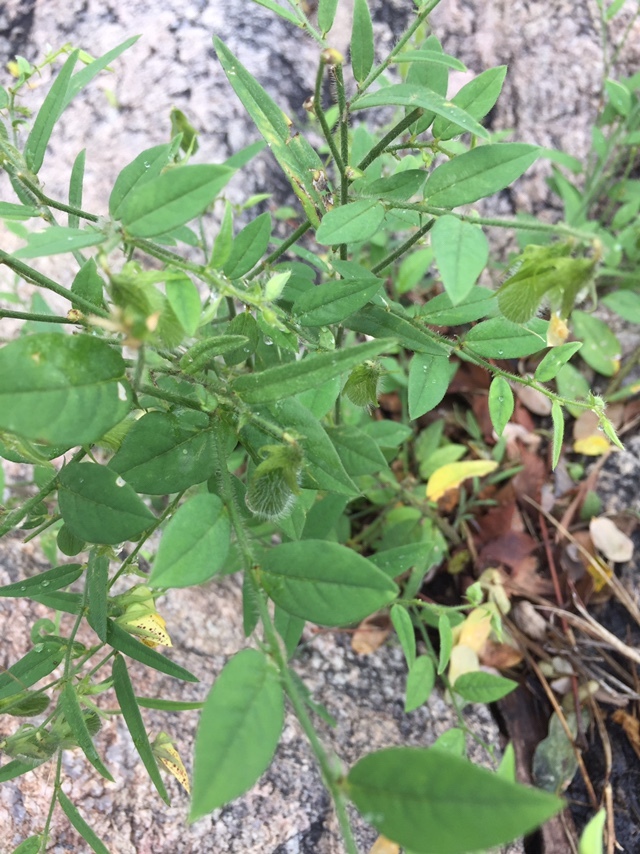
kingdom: Plantae
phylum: Tracheophyta
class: Magnoliopsida
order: Fabales
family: Fabaceae
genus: Crotalaria
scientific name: Crotalaria hirsuta
